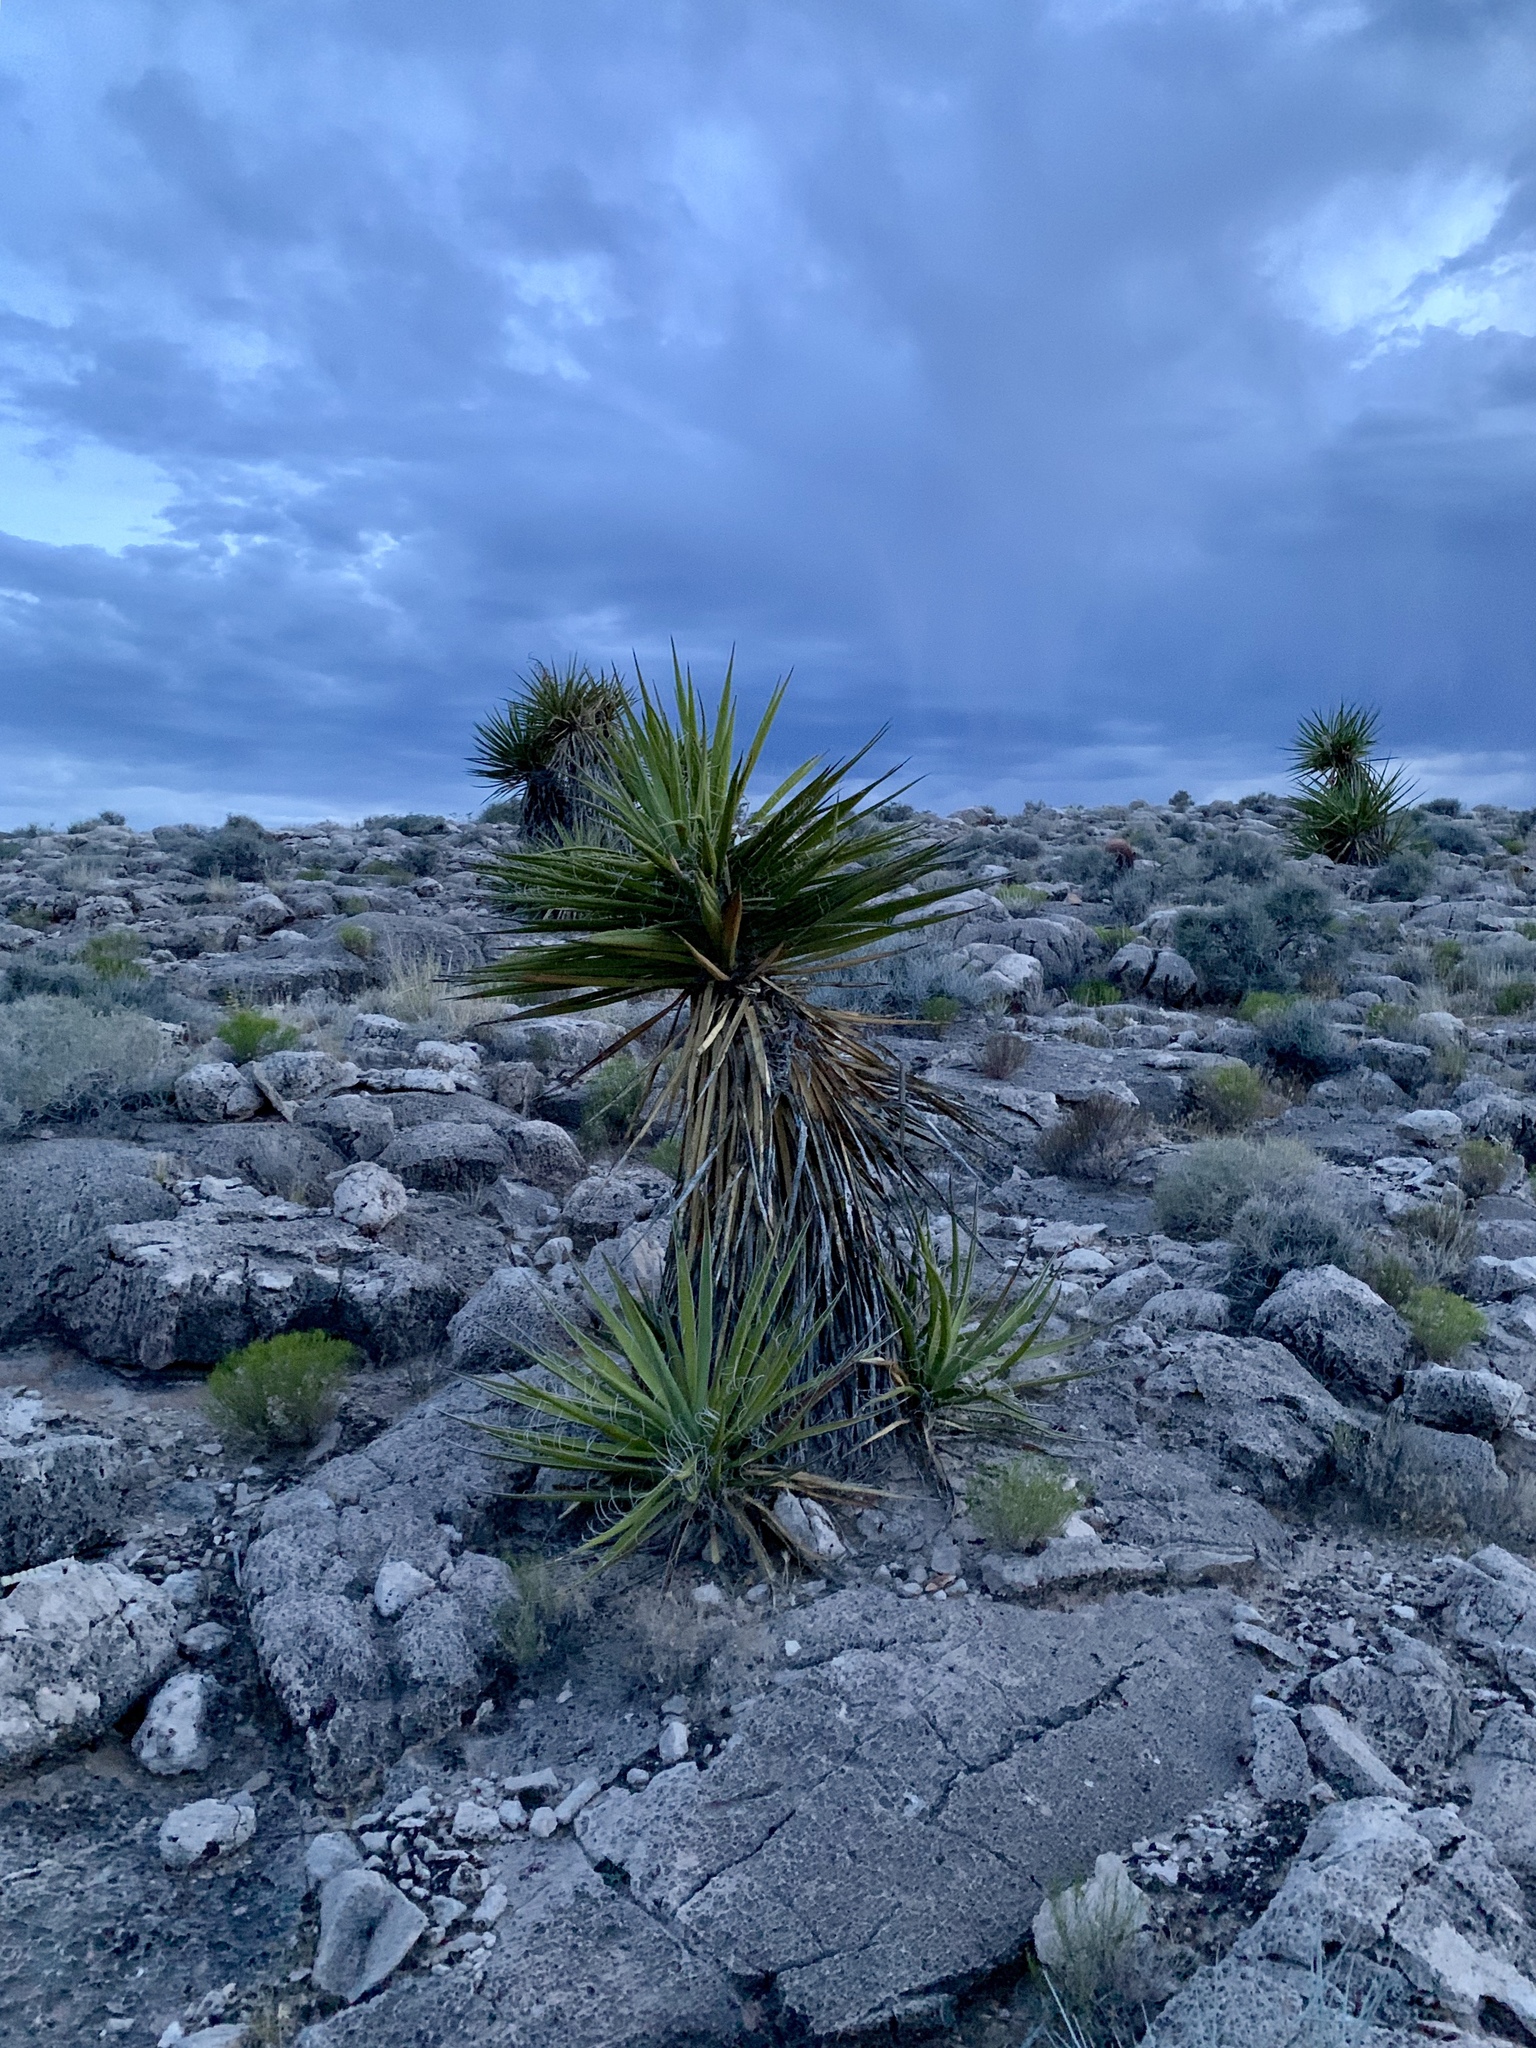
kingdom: Plantae
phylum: Tracheophyta
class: Liliopsida
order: Asparagales
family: Asparagaceae
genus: Yucca
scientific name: Yucca schidigera
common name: Mojave yucca
